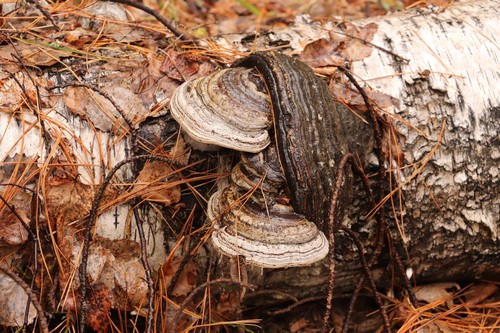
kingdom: Fungi
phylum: Basidiomycota
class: Agaricomycetes
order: Polyporales
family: Polyporaceae
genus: Fomes
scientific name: Fomes fomentarius
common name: Hoof fungus
